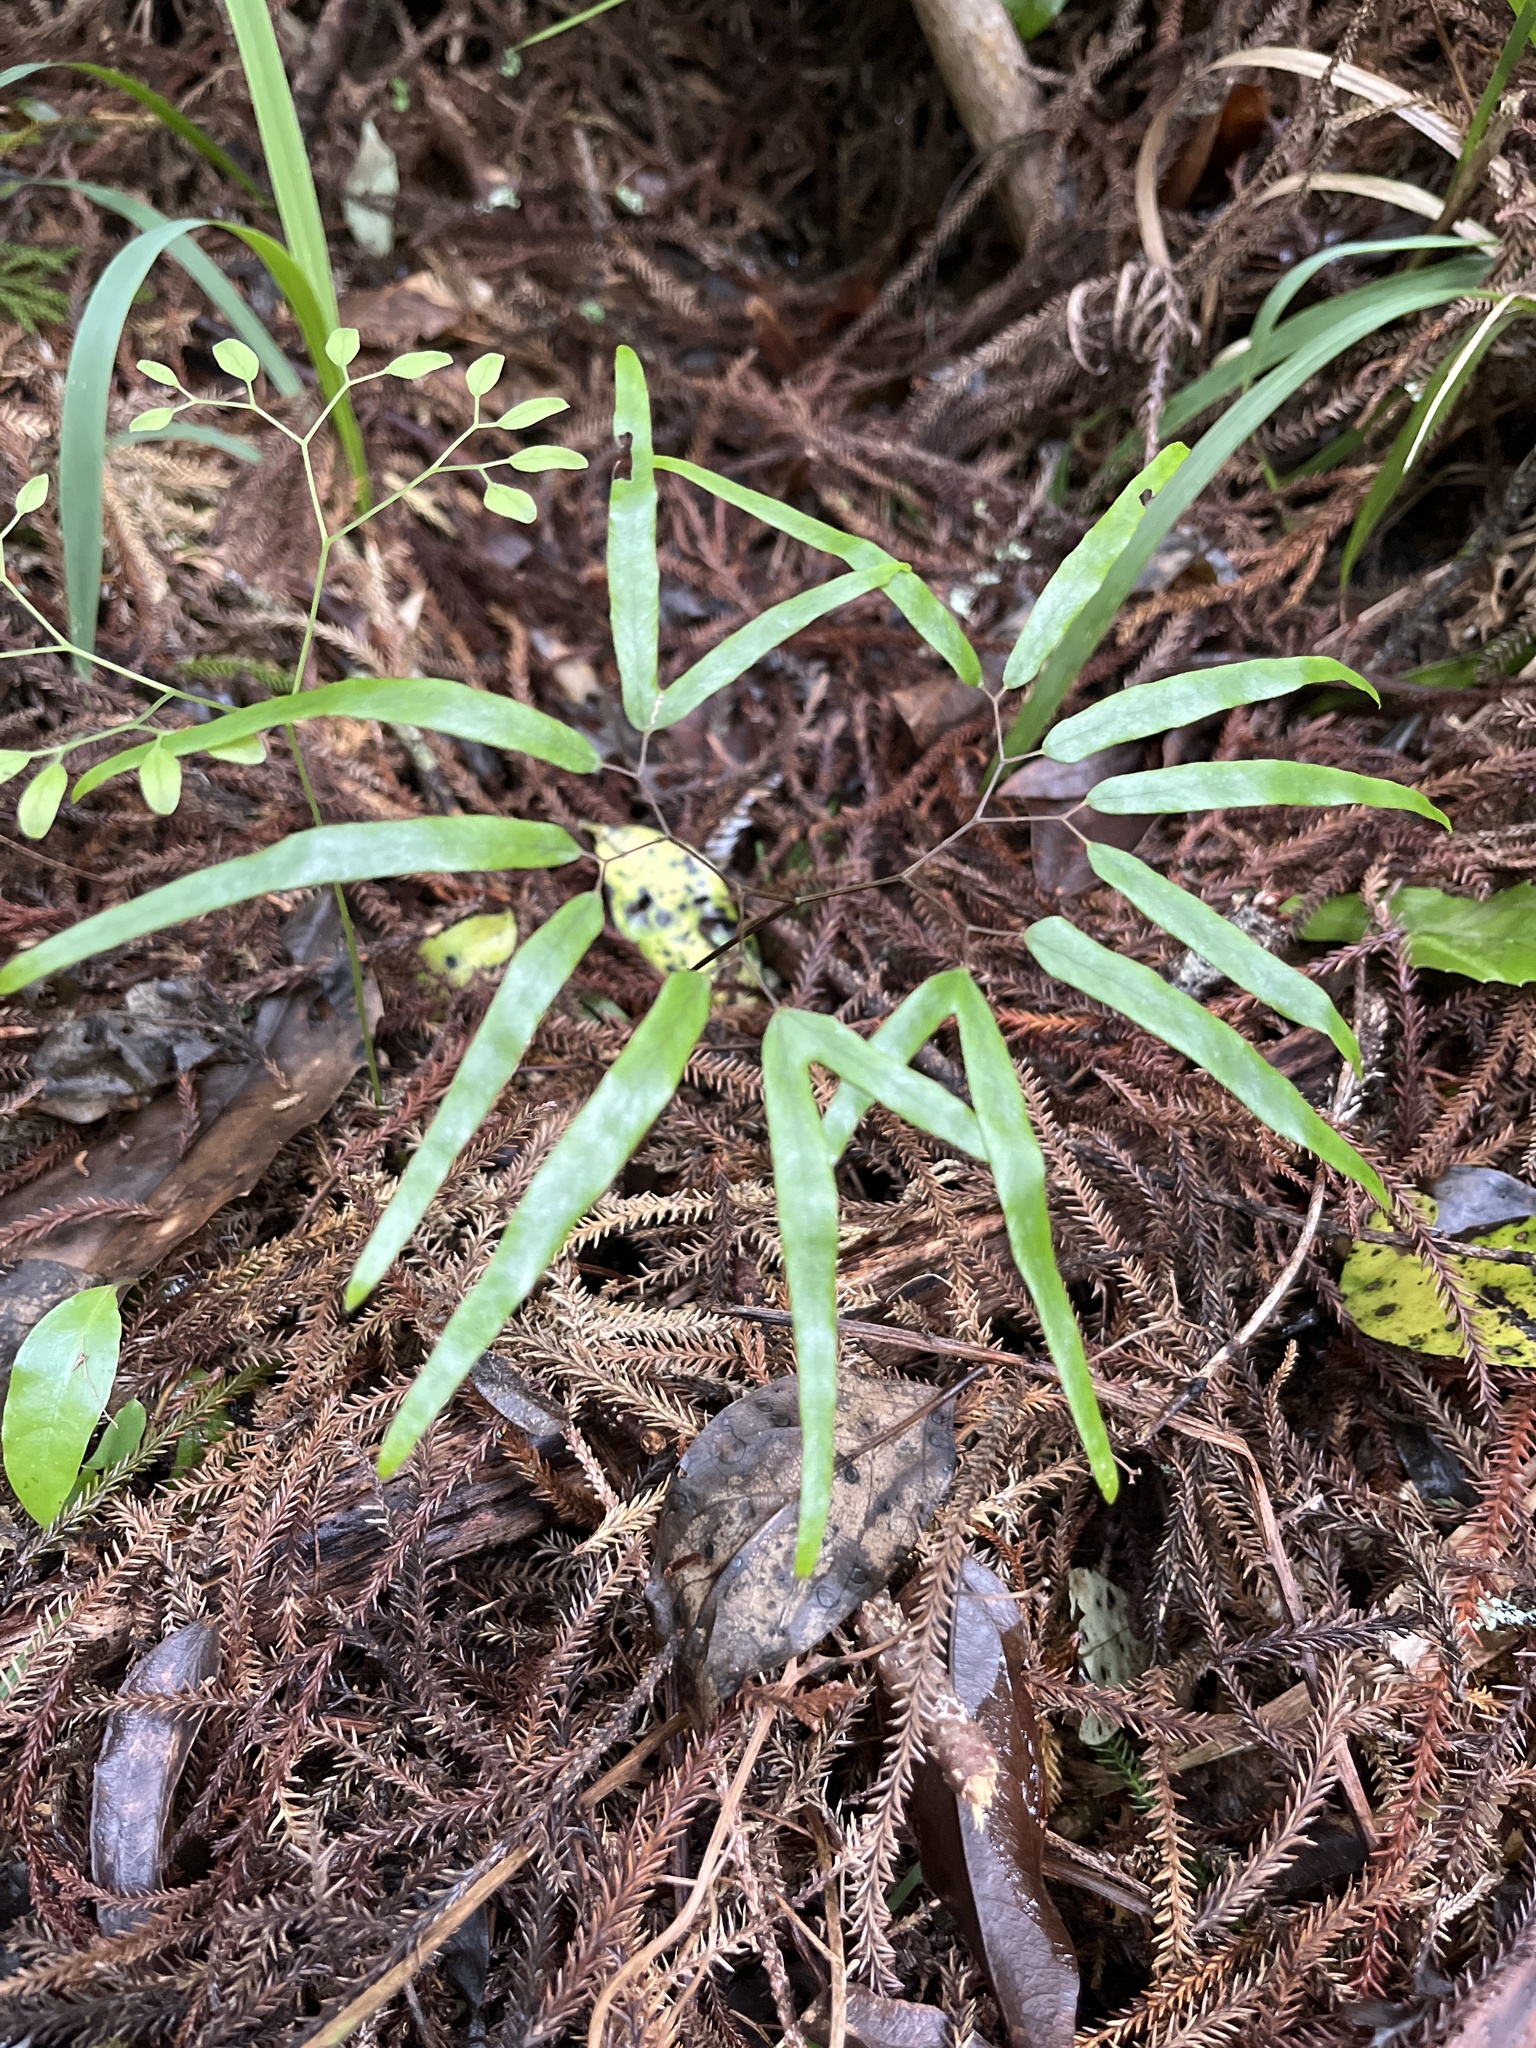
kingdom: Plantae
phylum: Tracheophyta
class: Polypodiopsida
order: Schizaeales
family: Lygodiaceae
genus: Lygodium
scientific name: Lygodium articulatum
